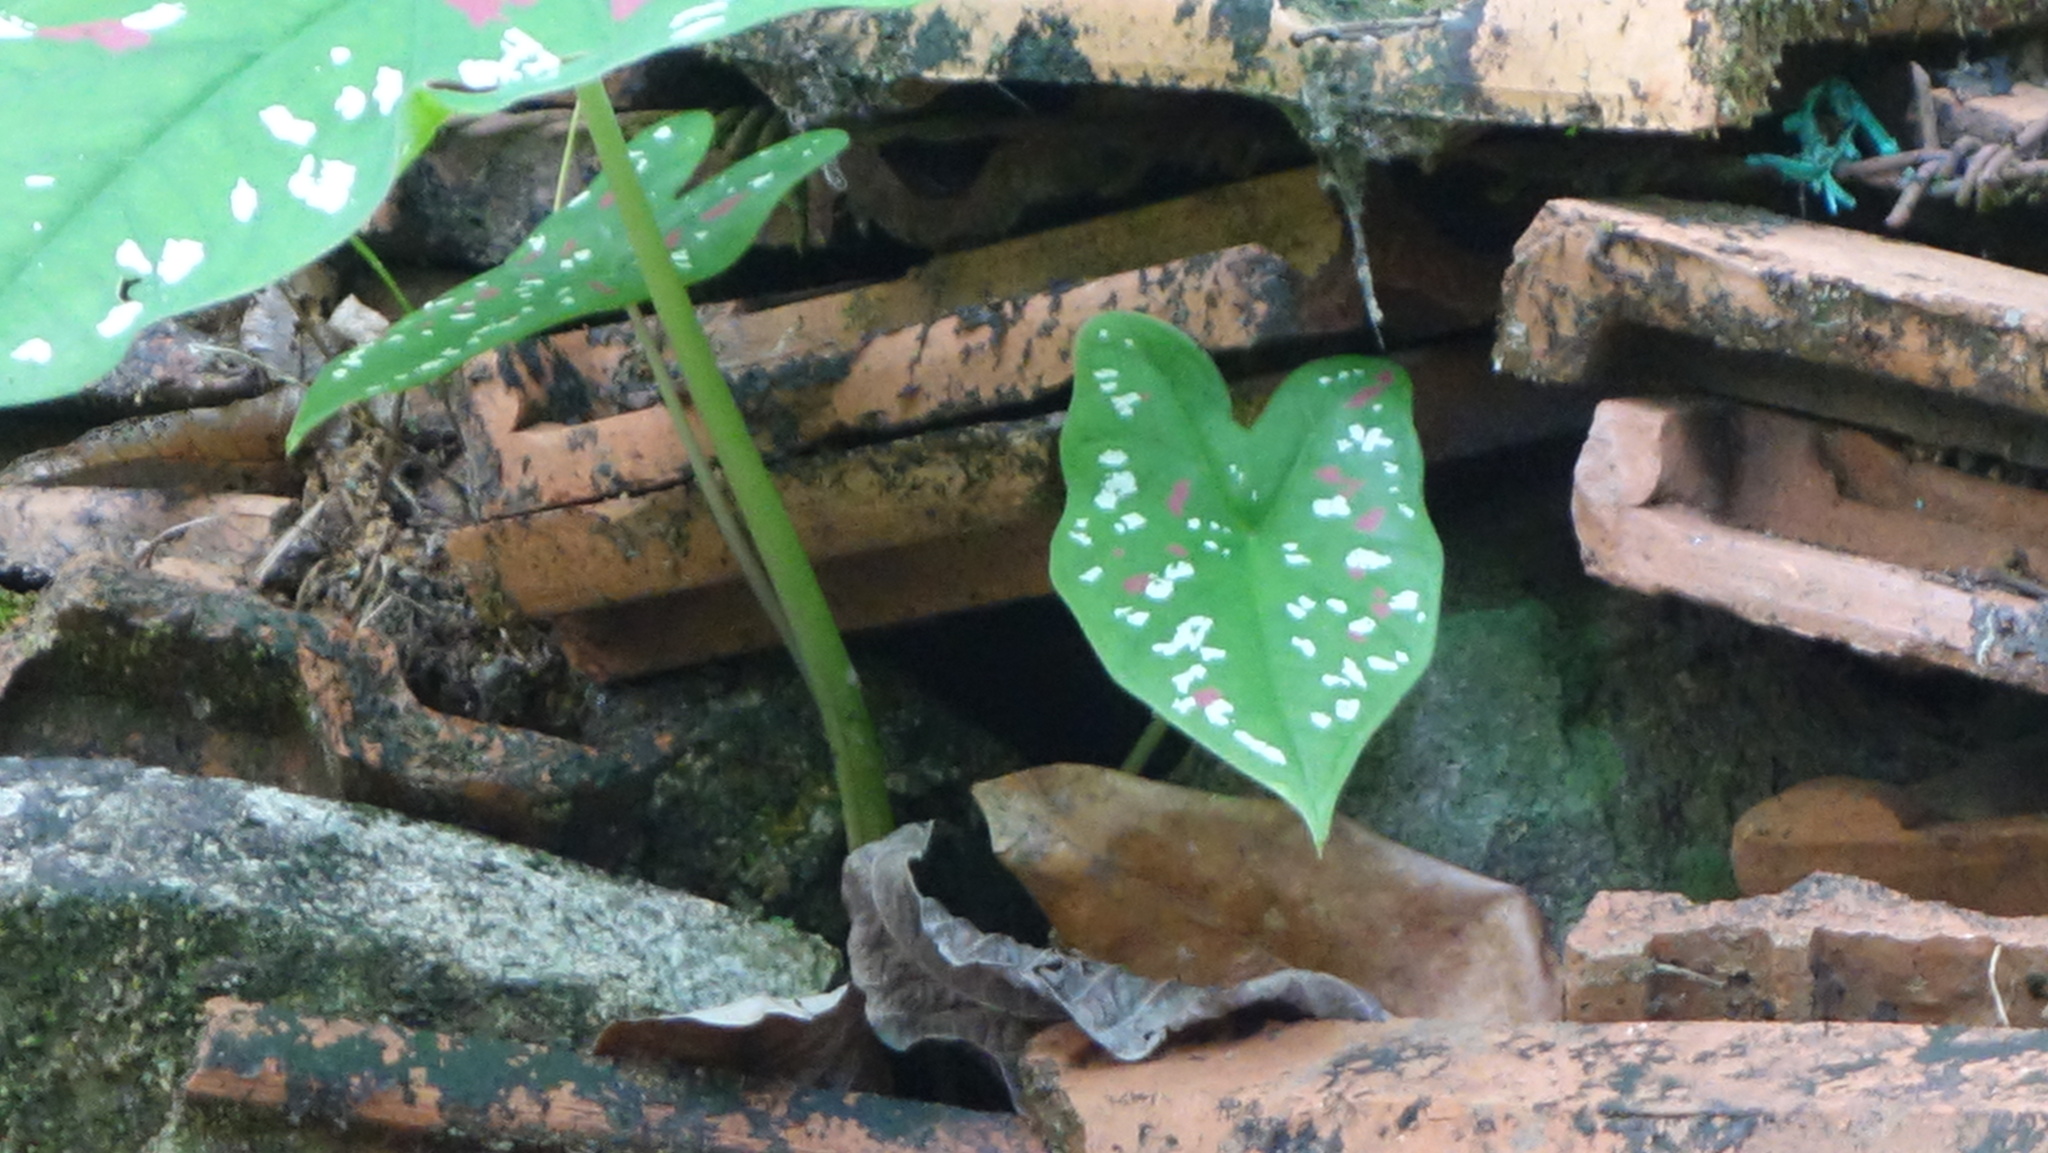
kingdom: Plantae
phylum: Tracheophyta
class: Liliopsida
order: Alismatales
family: Araceae
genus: Caladium
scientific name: Caladium bicolor
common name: Artist's pallet
